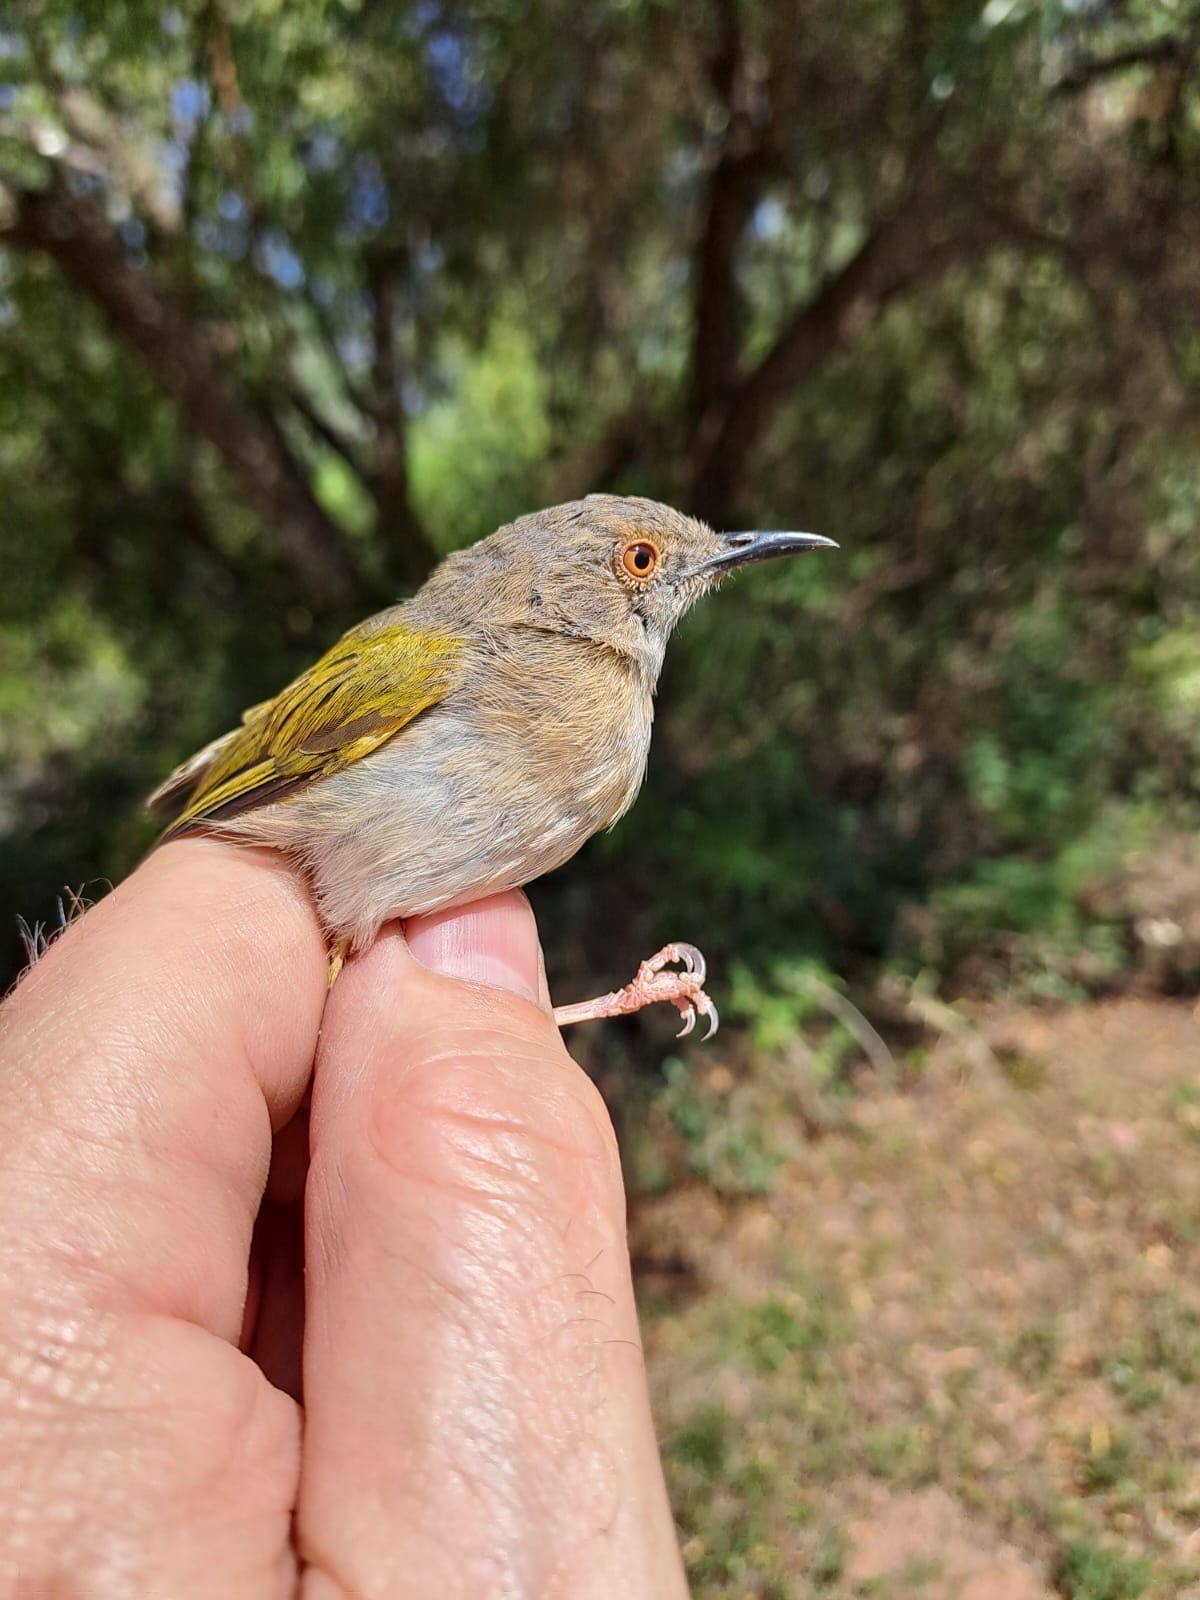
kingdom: Animalia
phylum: Chordata
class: Aves
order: Passeriformes
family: Cisticolidae
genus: Camaroptera
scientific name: Camaroptera brachyura
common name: Green-backed camaroptera
